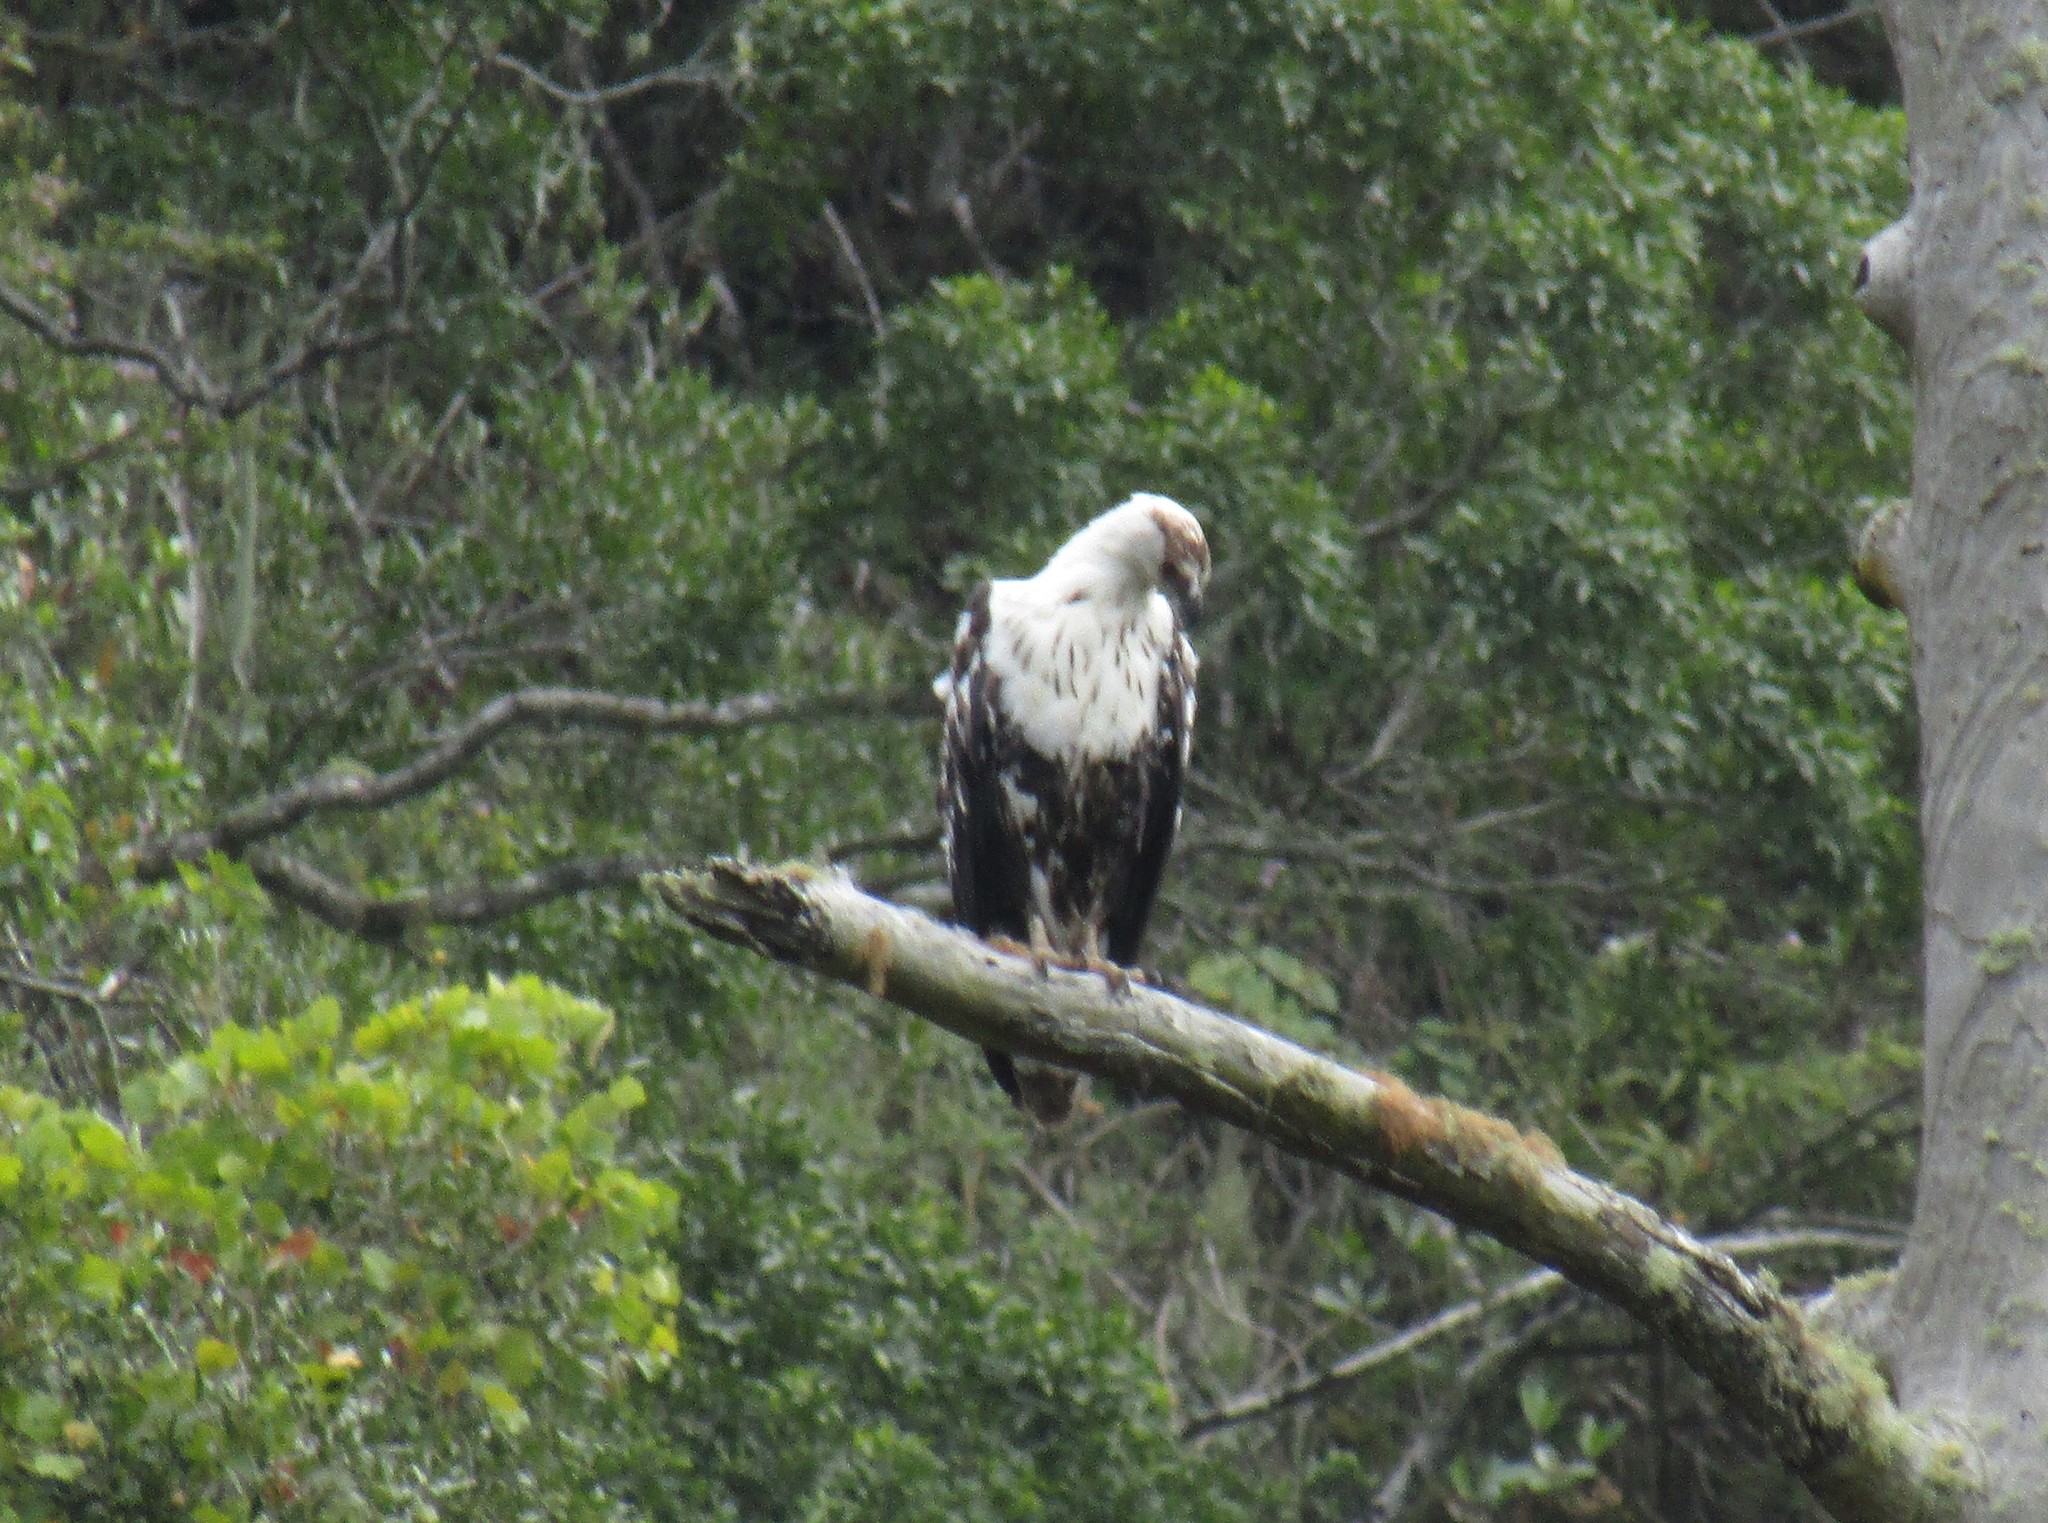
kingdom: Animalia
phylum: Chordata
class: Aves
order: Accipitriformes
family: Accipitridae
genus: Haliaeetus
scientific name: Haliaeetus vocifer
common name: African fish eagle
